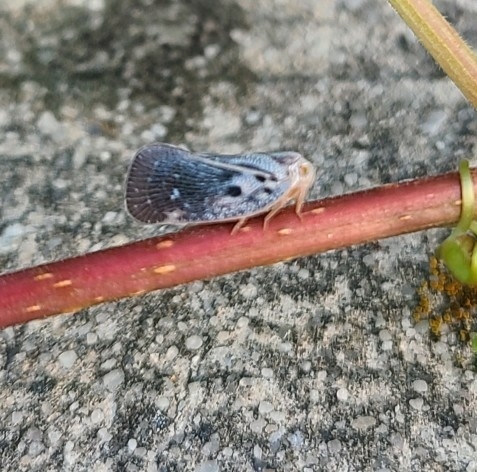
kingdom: Animalia
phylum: Arthropoda
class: Insecta
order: Hemiptera
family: Flatidae
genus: Metcalfa
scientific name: Metcalfa pruinosa
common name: Citrus flatid planthopper
